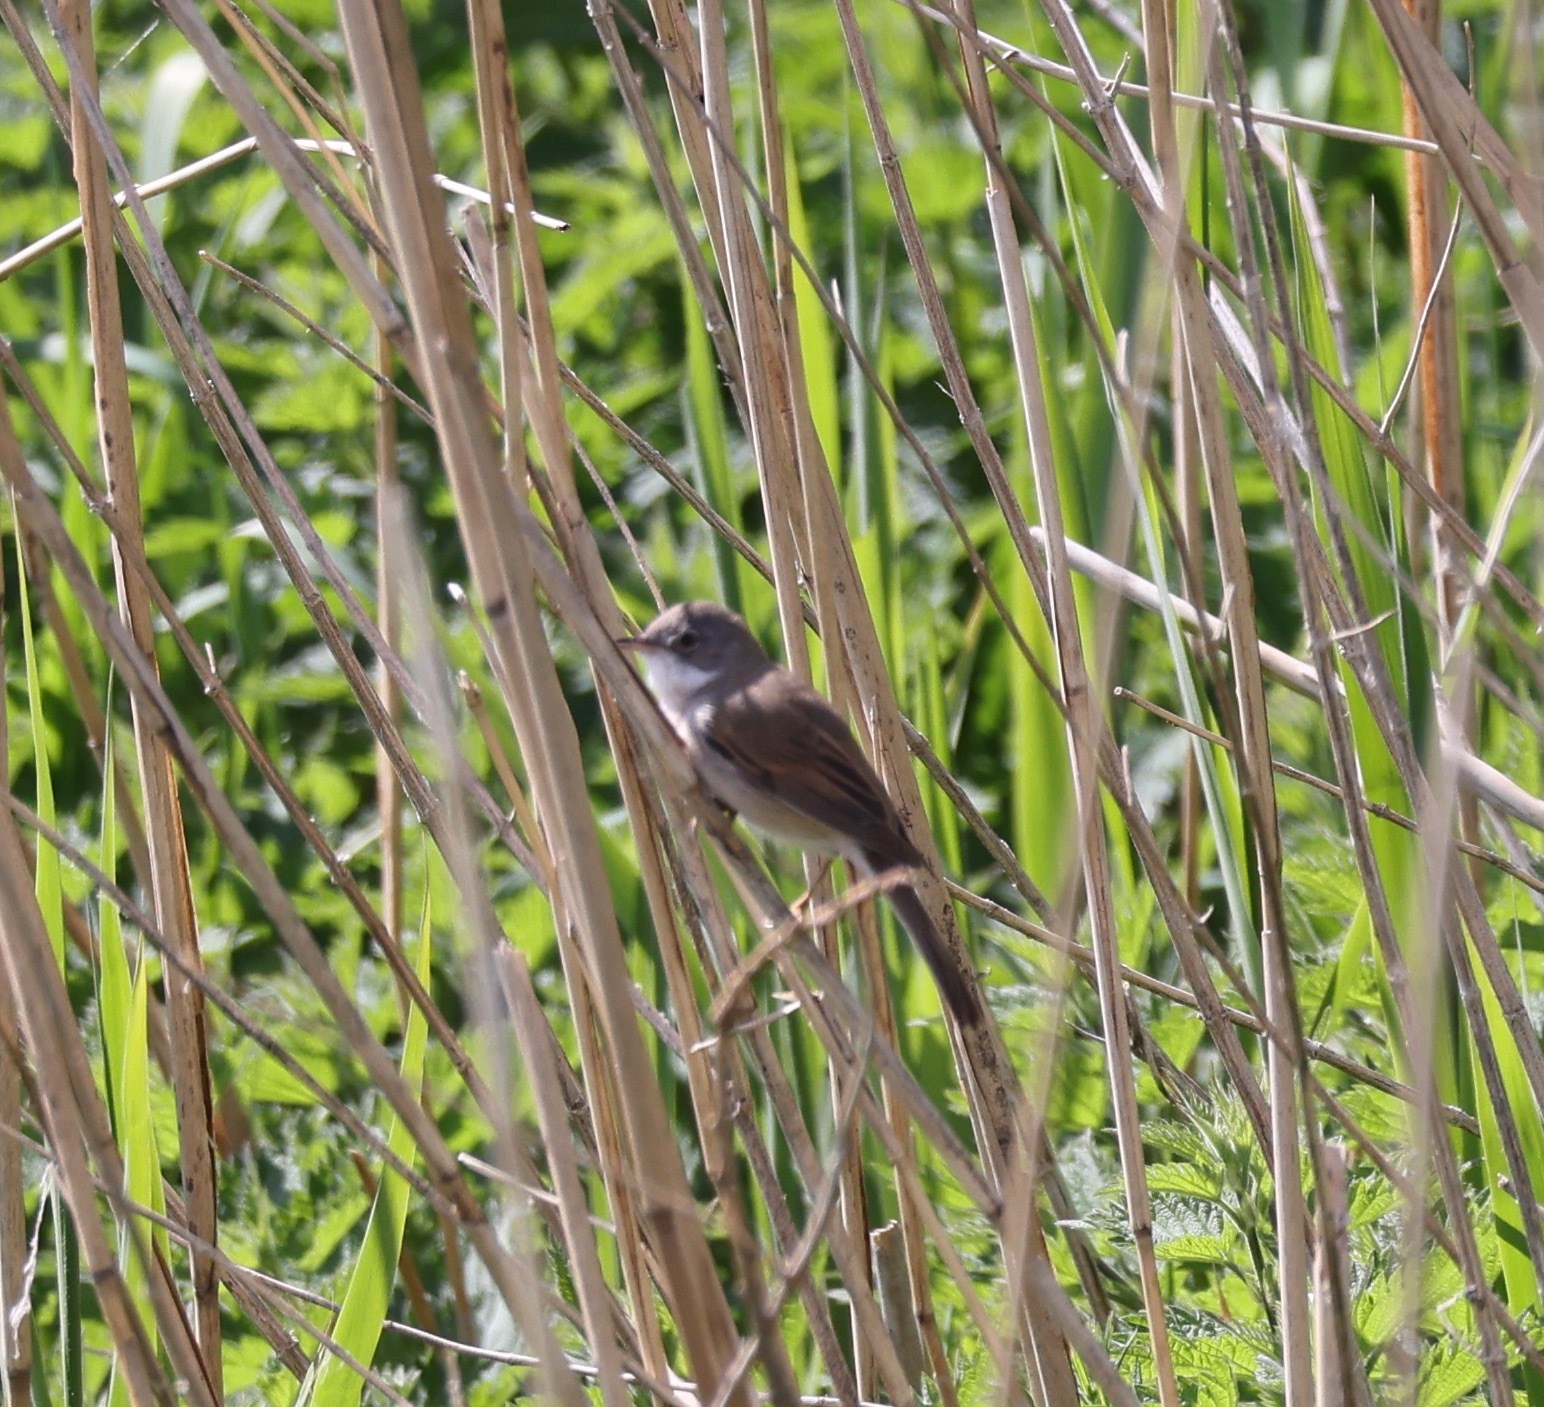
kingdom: Animalia
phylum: Chordata
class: Aves
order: Passeriformes
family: Sylviidae
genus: Sylvia
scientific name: Sylvia communis
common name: Common whitethroat
